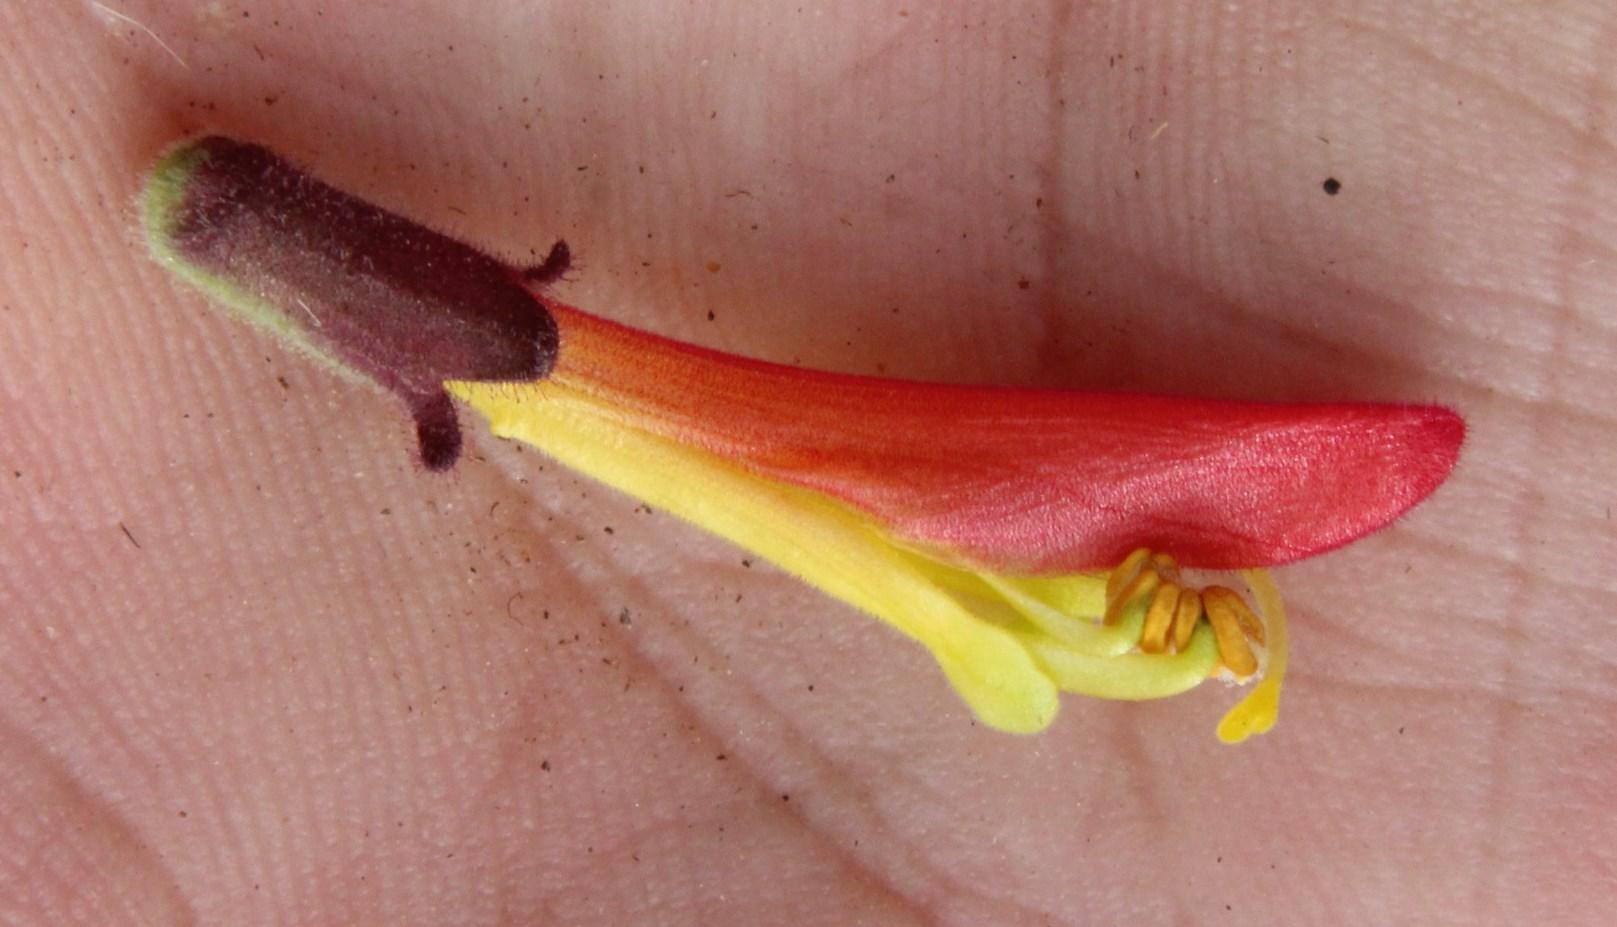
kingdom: Plantae
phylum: Tracheophyta
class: Magnoliopsida
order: Lamiales
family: Orobanchaceae
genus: Neobartsia
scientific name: Neobartsia camporum
